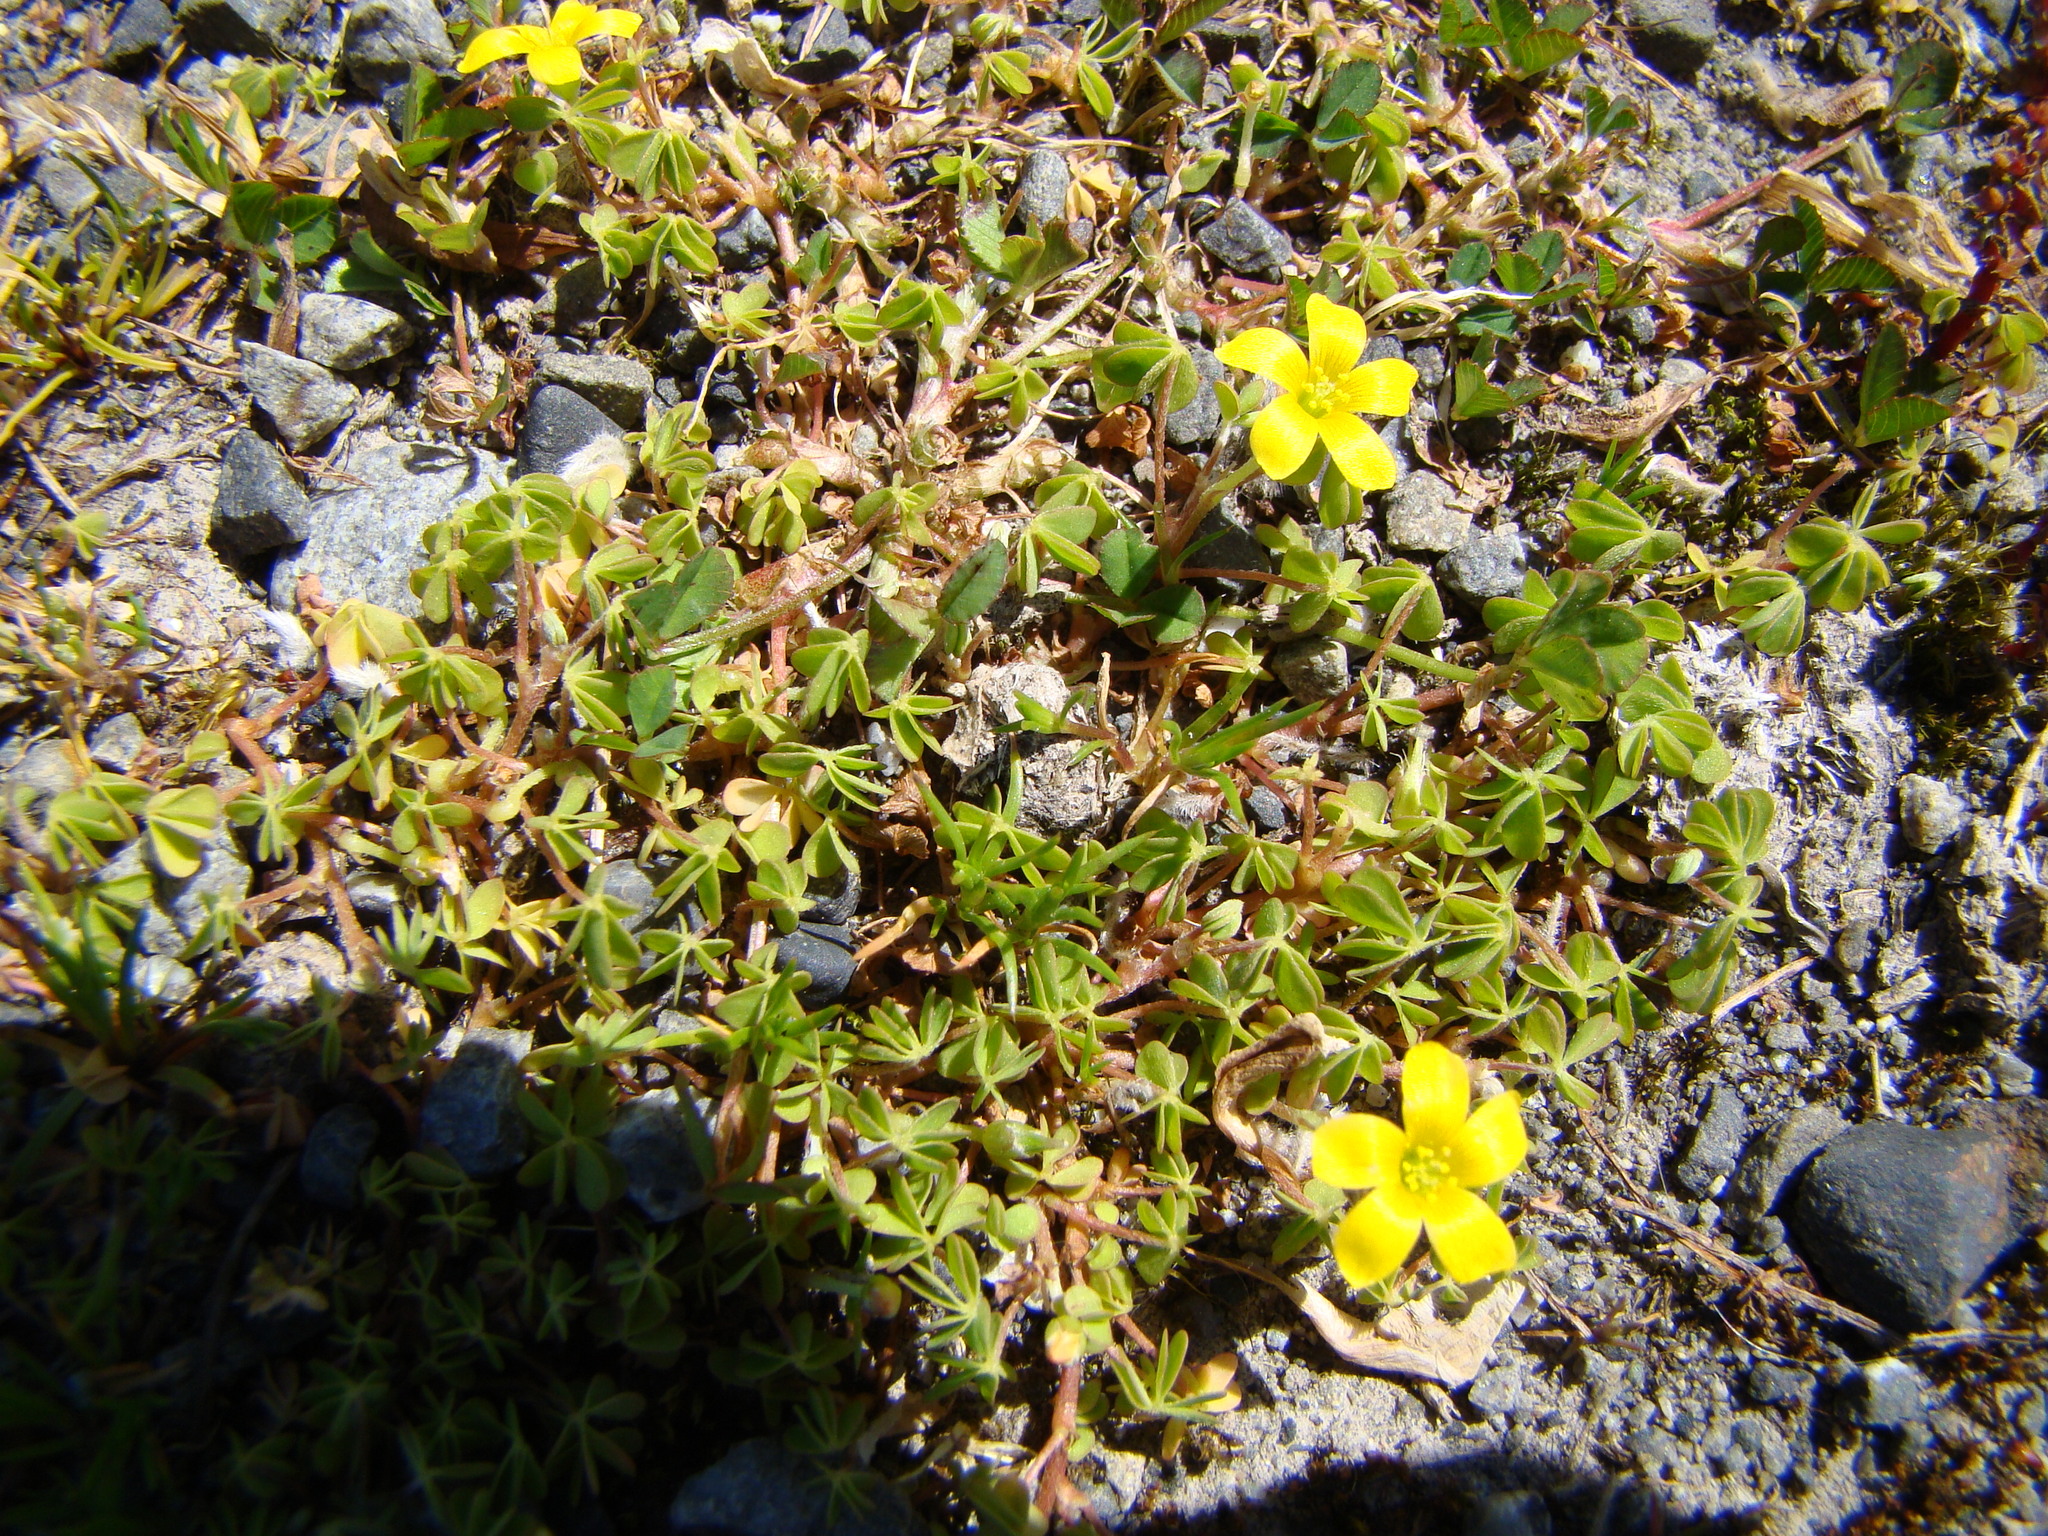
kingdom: Plantae
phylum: Tracheophyta
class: Magnoliopsida
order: Oxalidales
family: Oxalidaceae
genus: Oxalis
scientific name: Oxalis exilis
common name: Least yellow-sorrel
